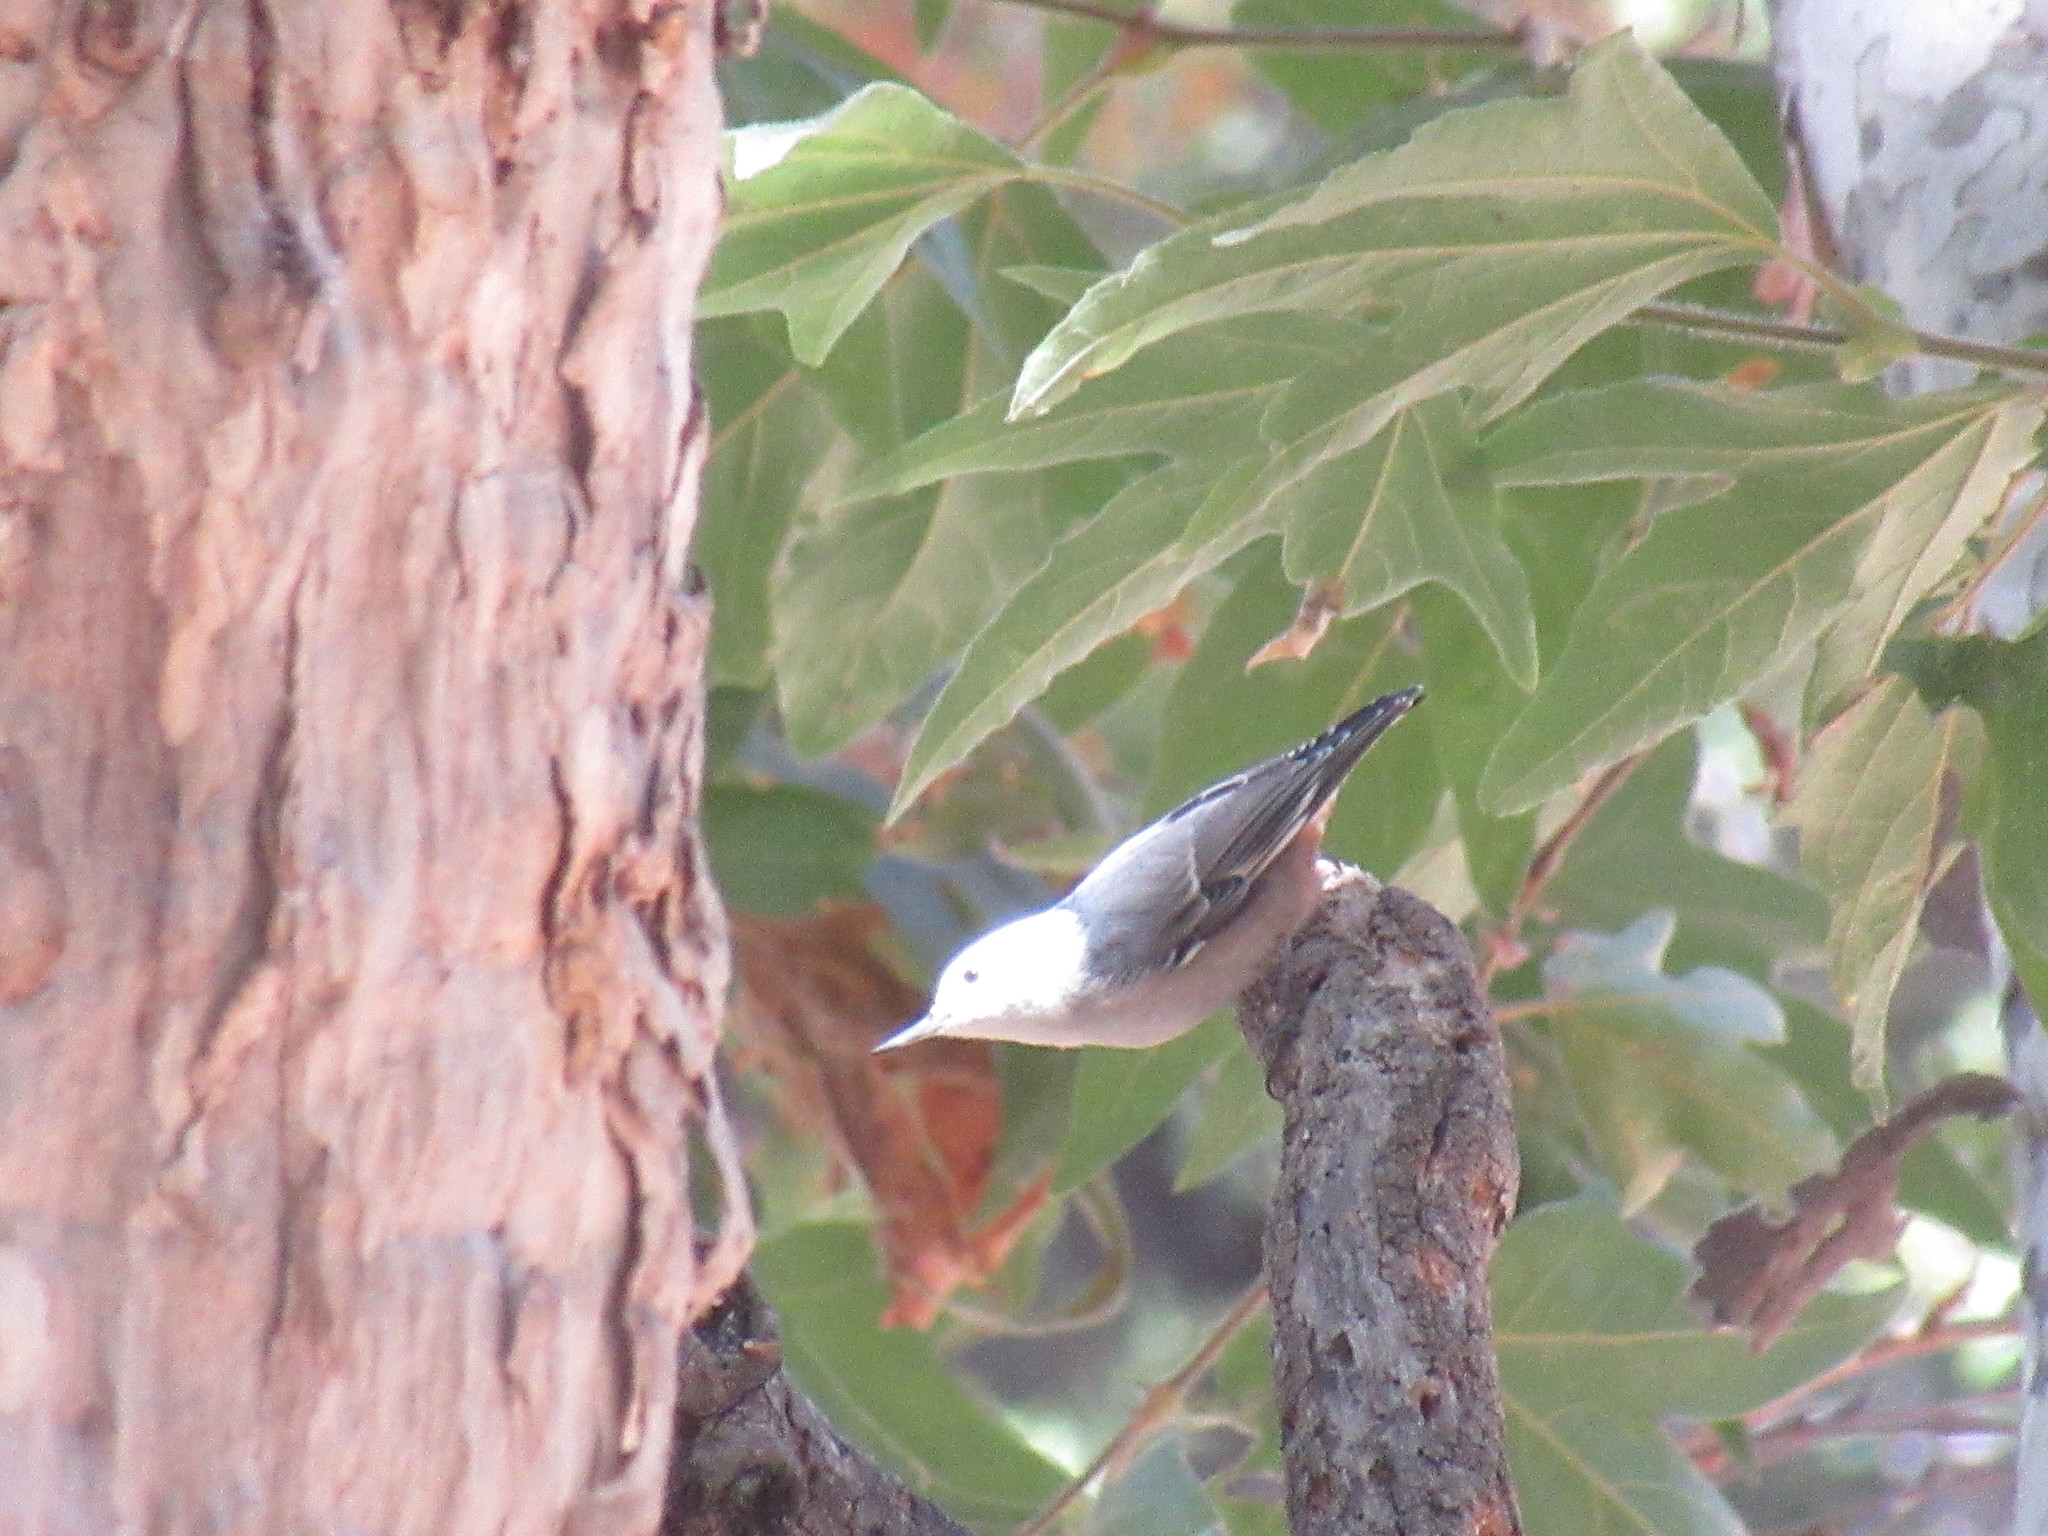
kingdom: Animalia
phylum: Chordata
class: Aves
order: Passeriformes
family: Sittidae
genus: Sitta
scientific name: Sitta carolinensis
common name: White-breasted nuthatch
